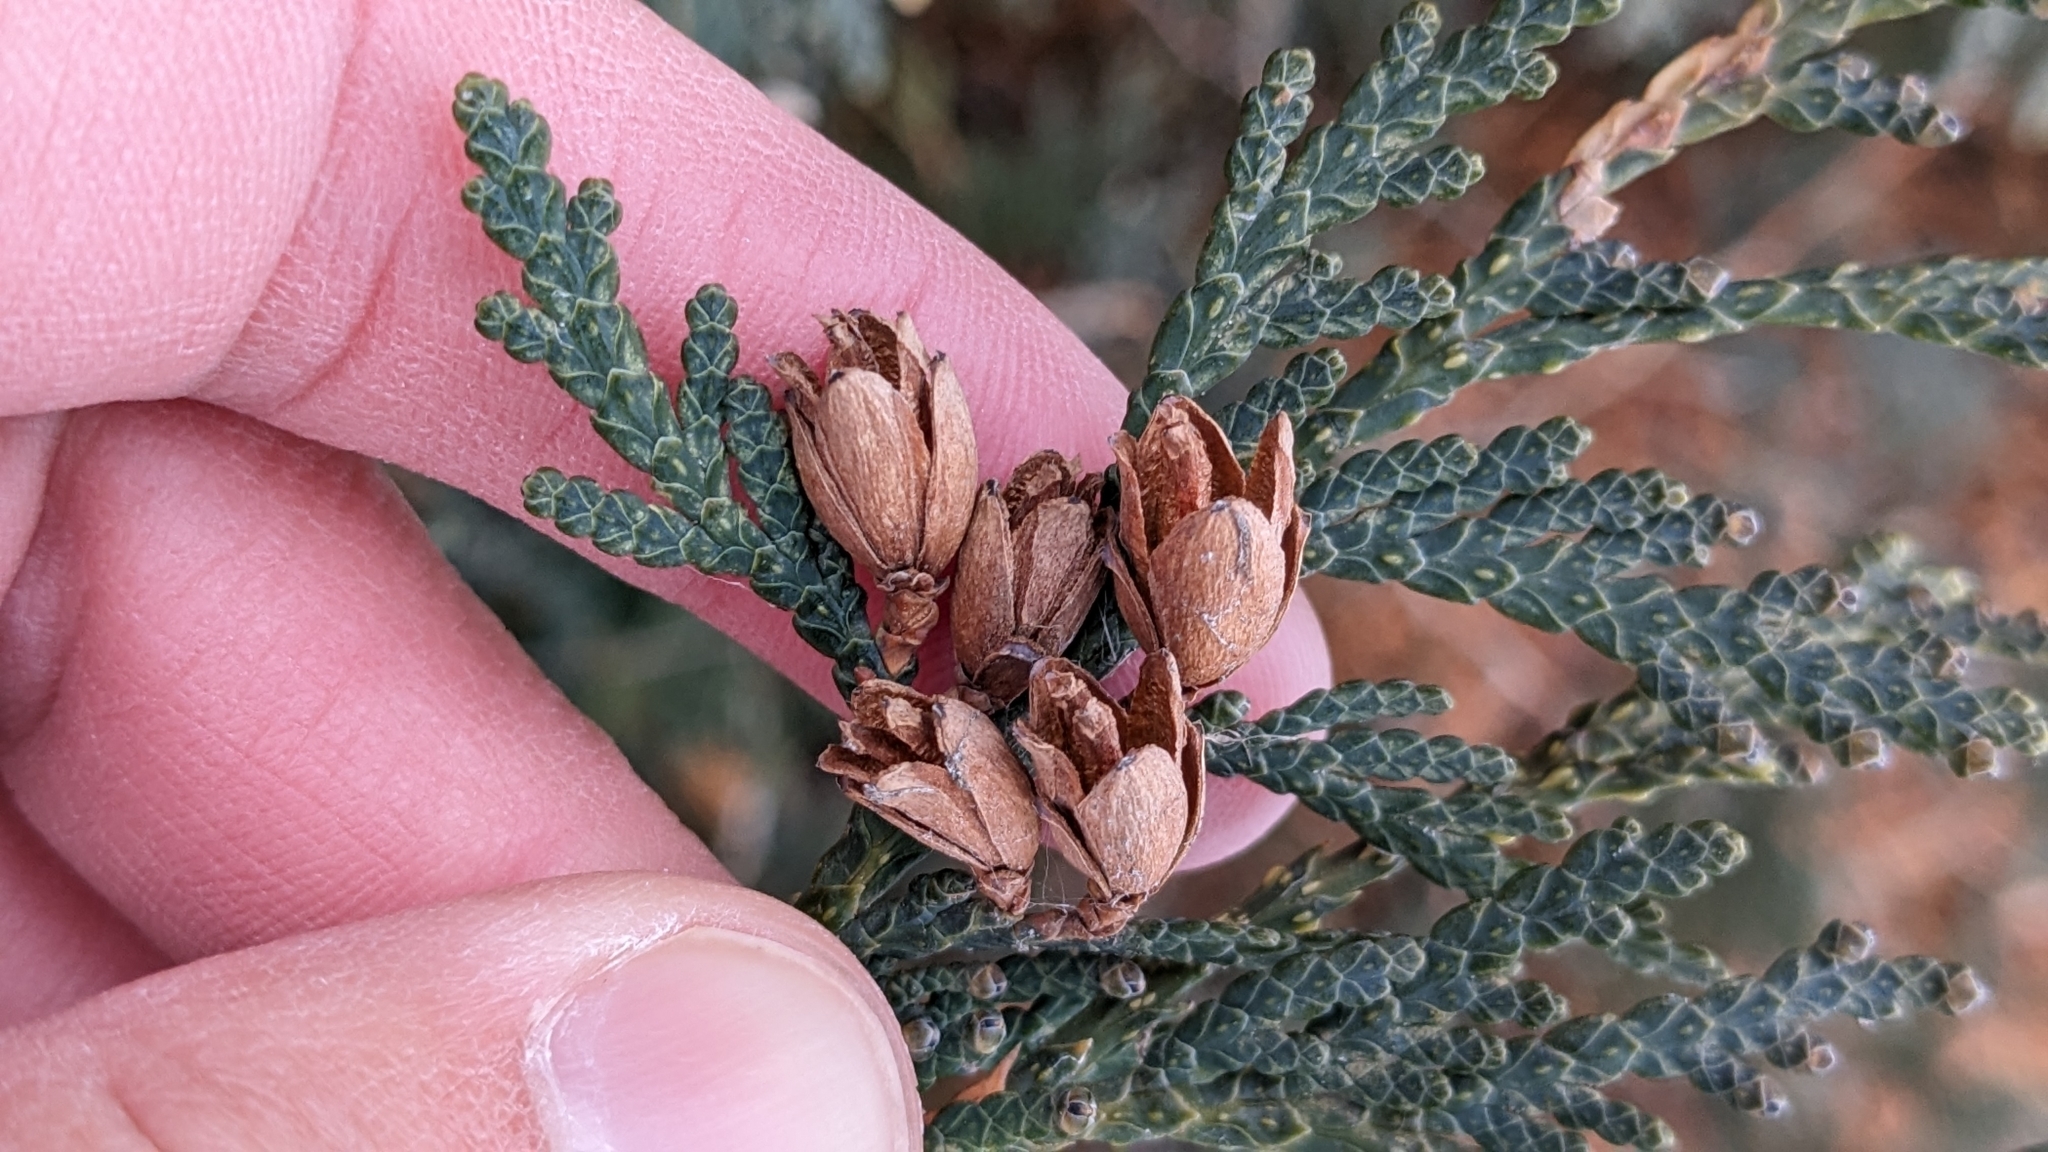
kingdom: Plantae
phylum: Tracheophyta
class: Pinopsida
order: Pinales
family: Cupressaceae
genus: Thuja
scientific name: Thuja occidentalis
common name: Northern white-cedar
